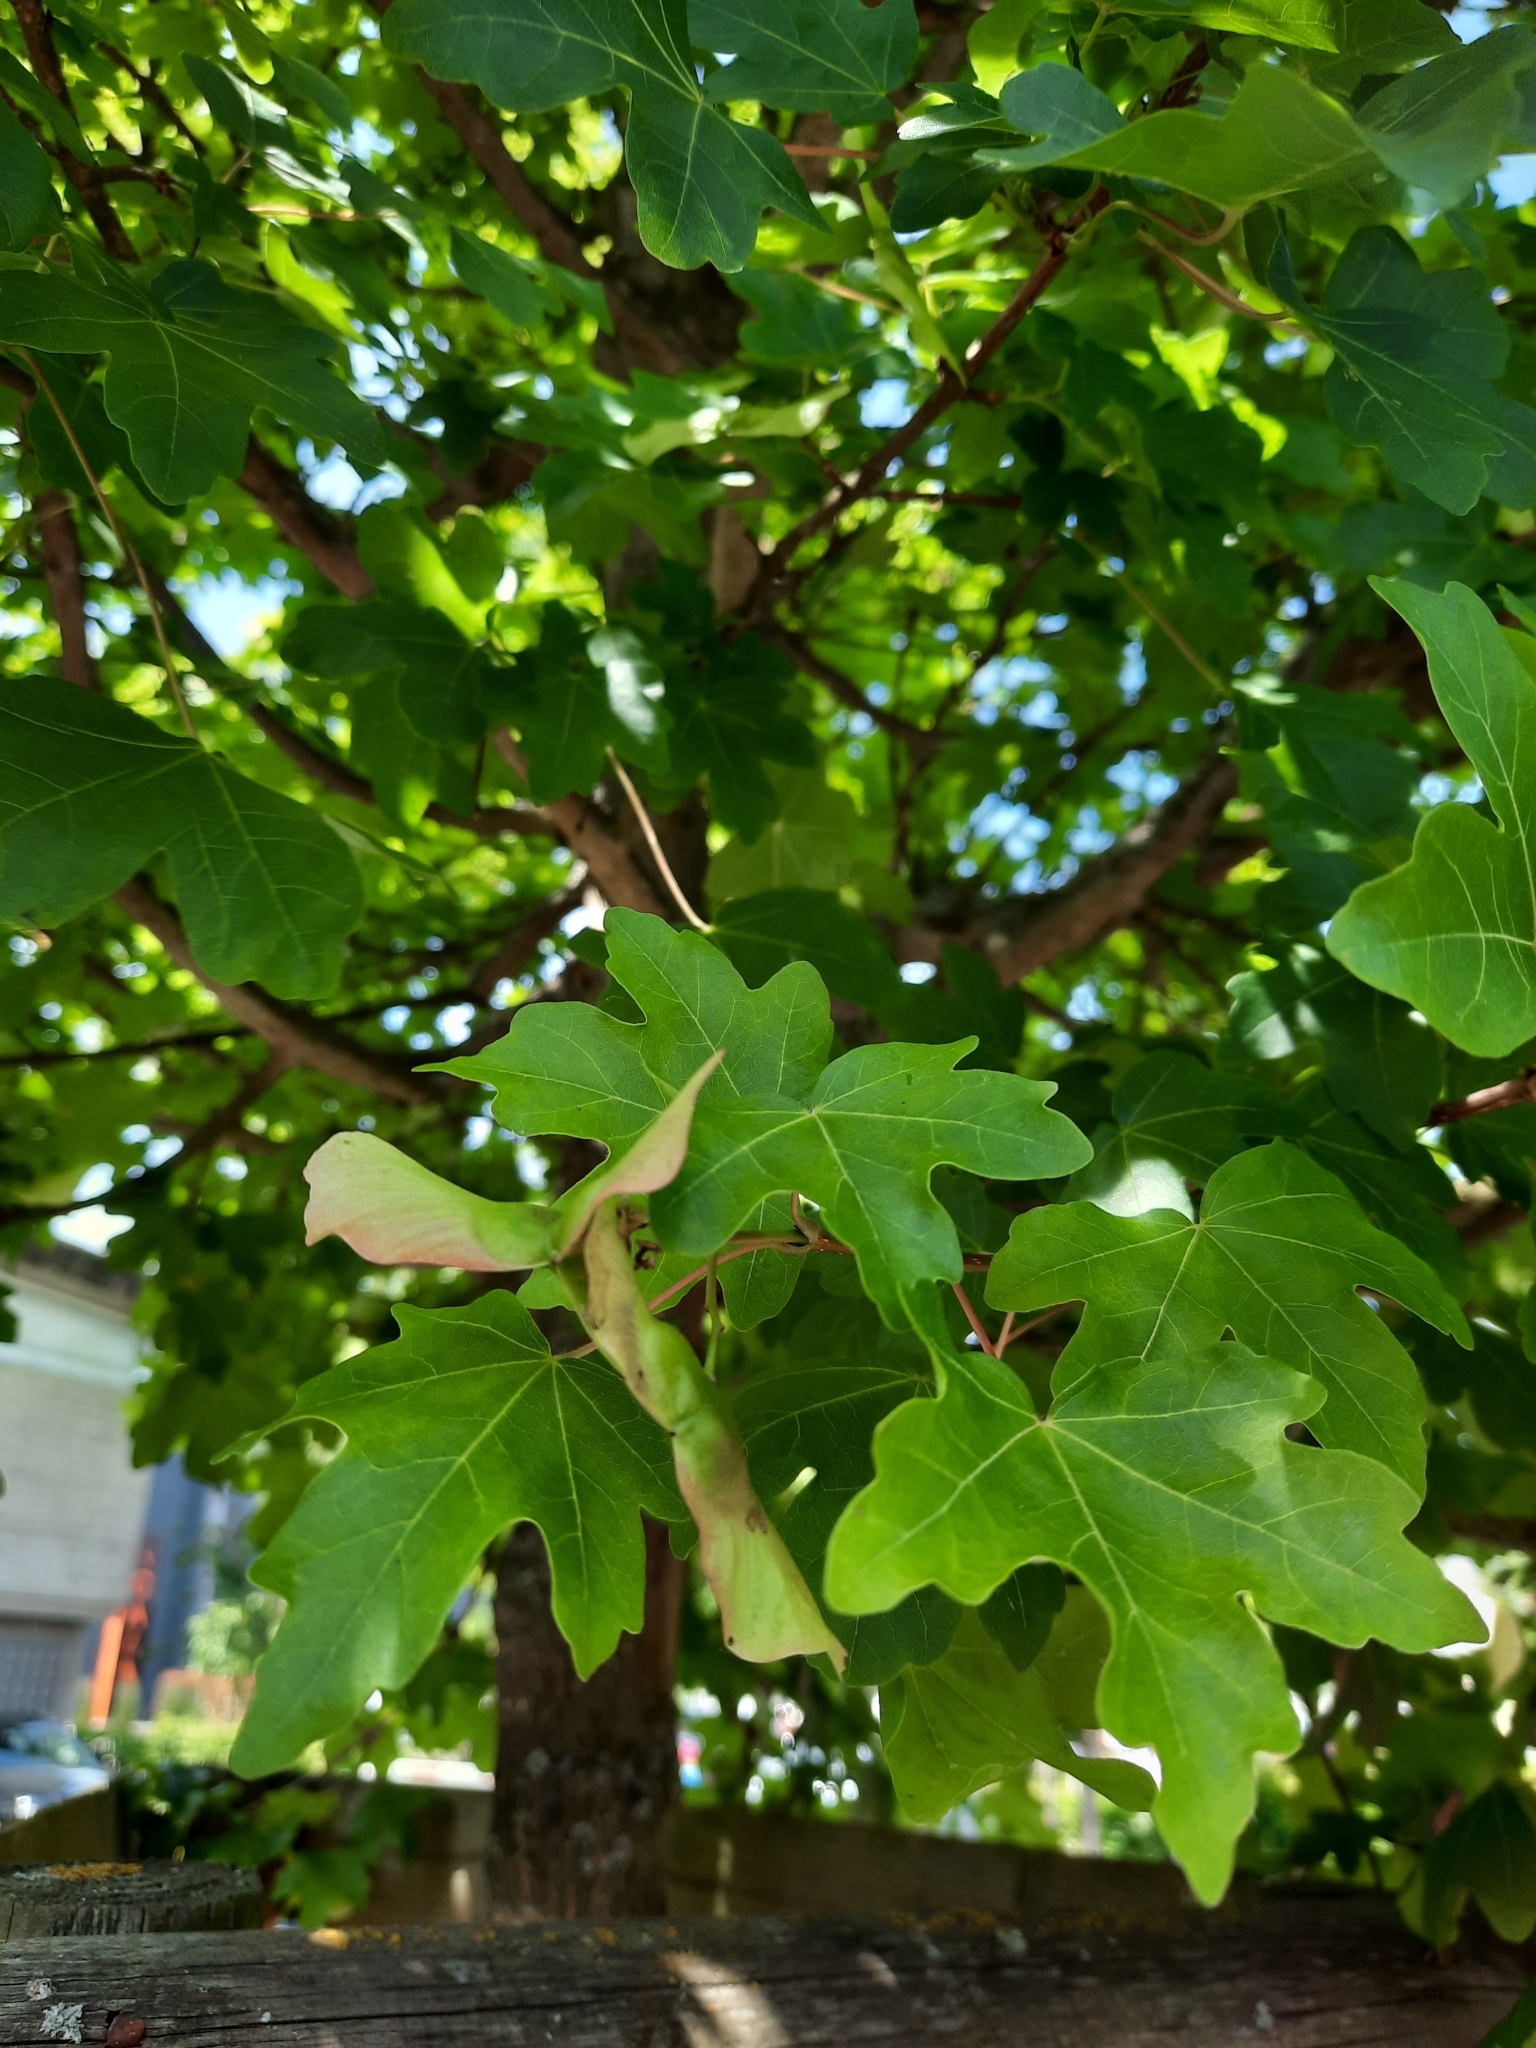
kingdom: Plantae
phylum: Tracheophyta
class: Magnoliopsida
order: Sapindales
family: Sapindaceae
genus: Acer
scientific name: Acer campestre
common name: Field maple
